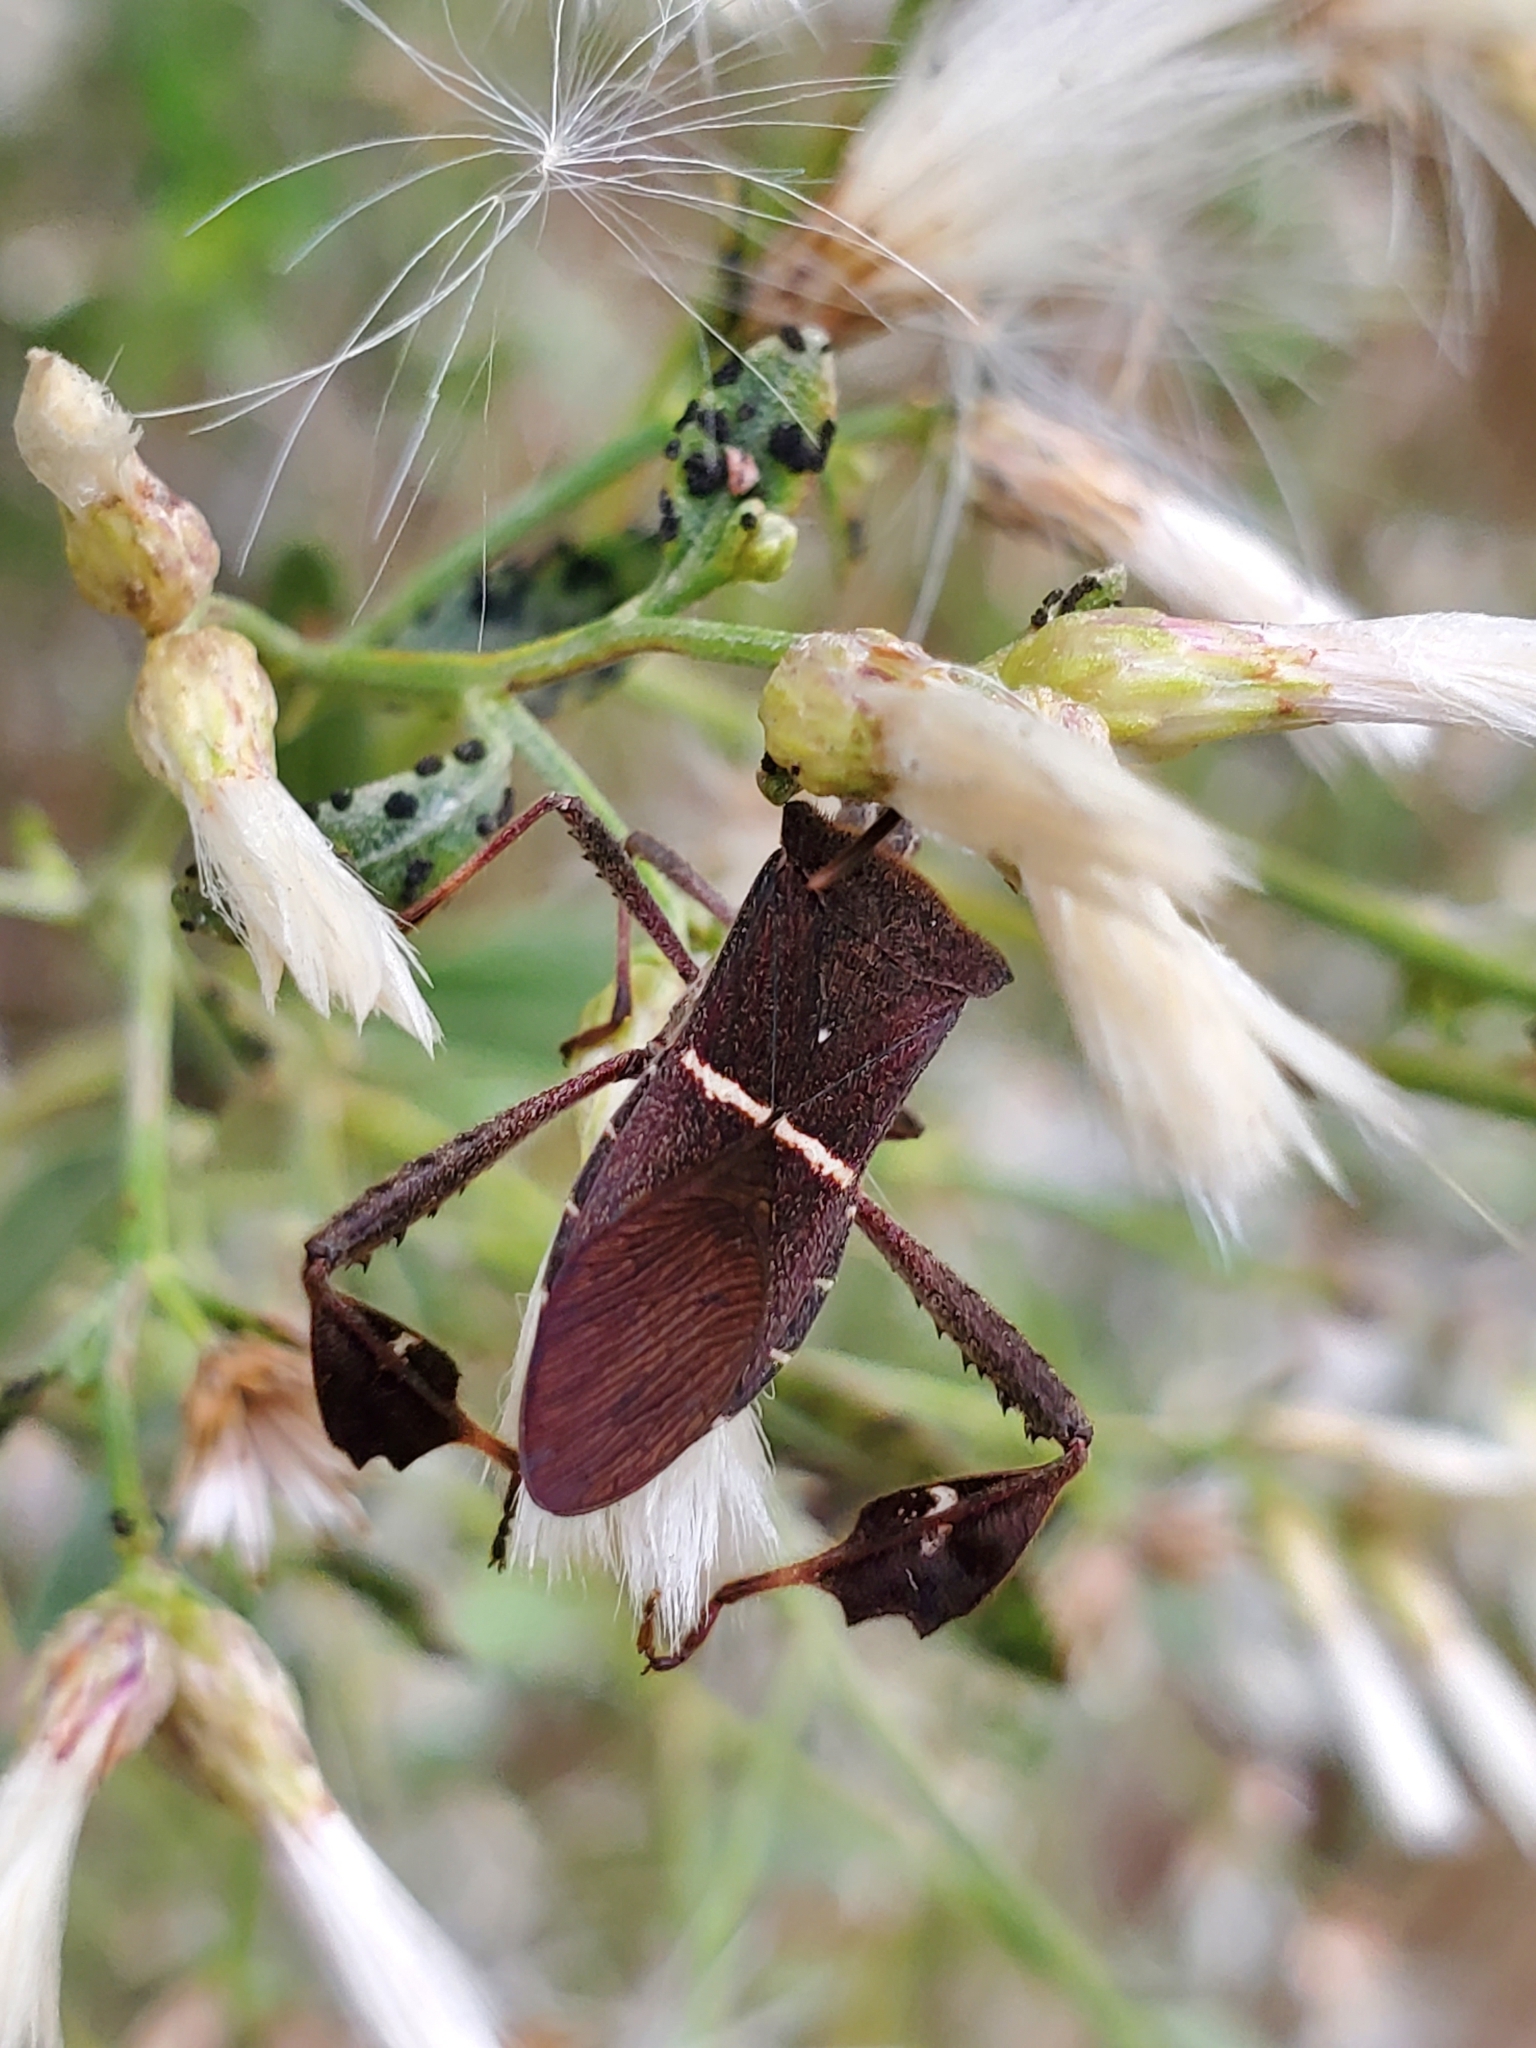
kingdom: Animalia
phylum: Arthropoda
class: Insecta
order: Hemiptera
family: Coreidae
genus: Leptoglossus
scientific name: Leptoglossus phyllopus
